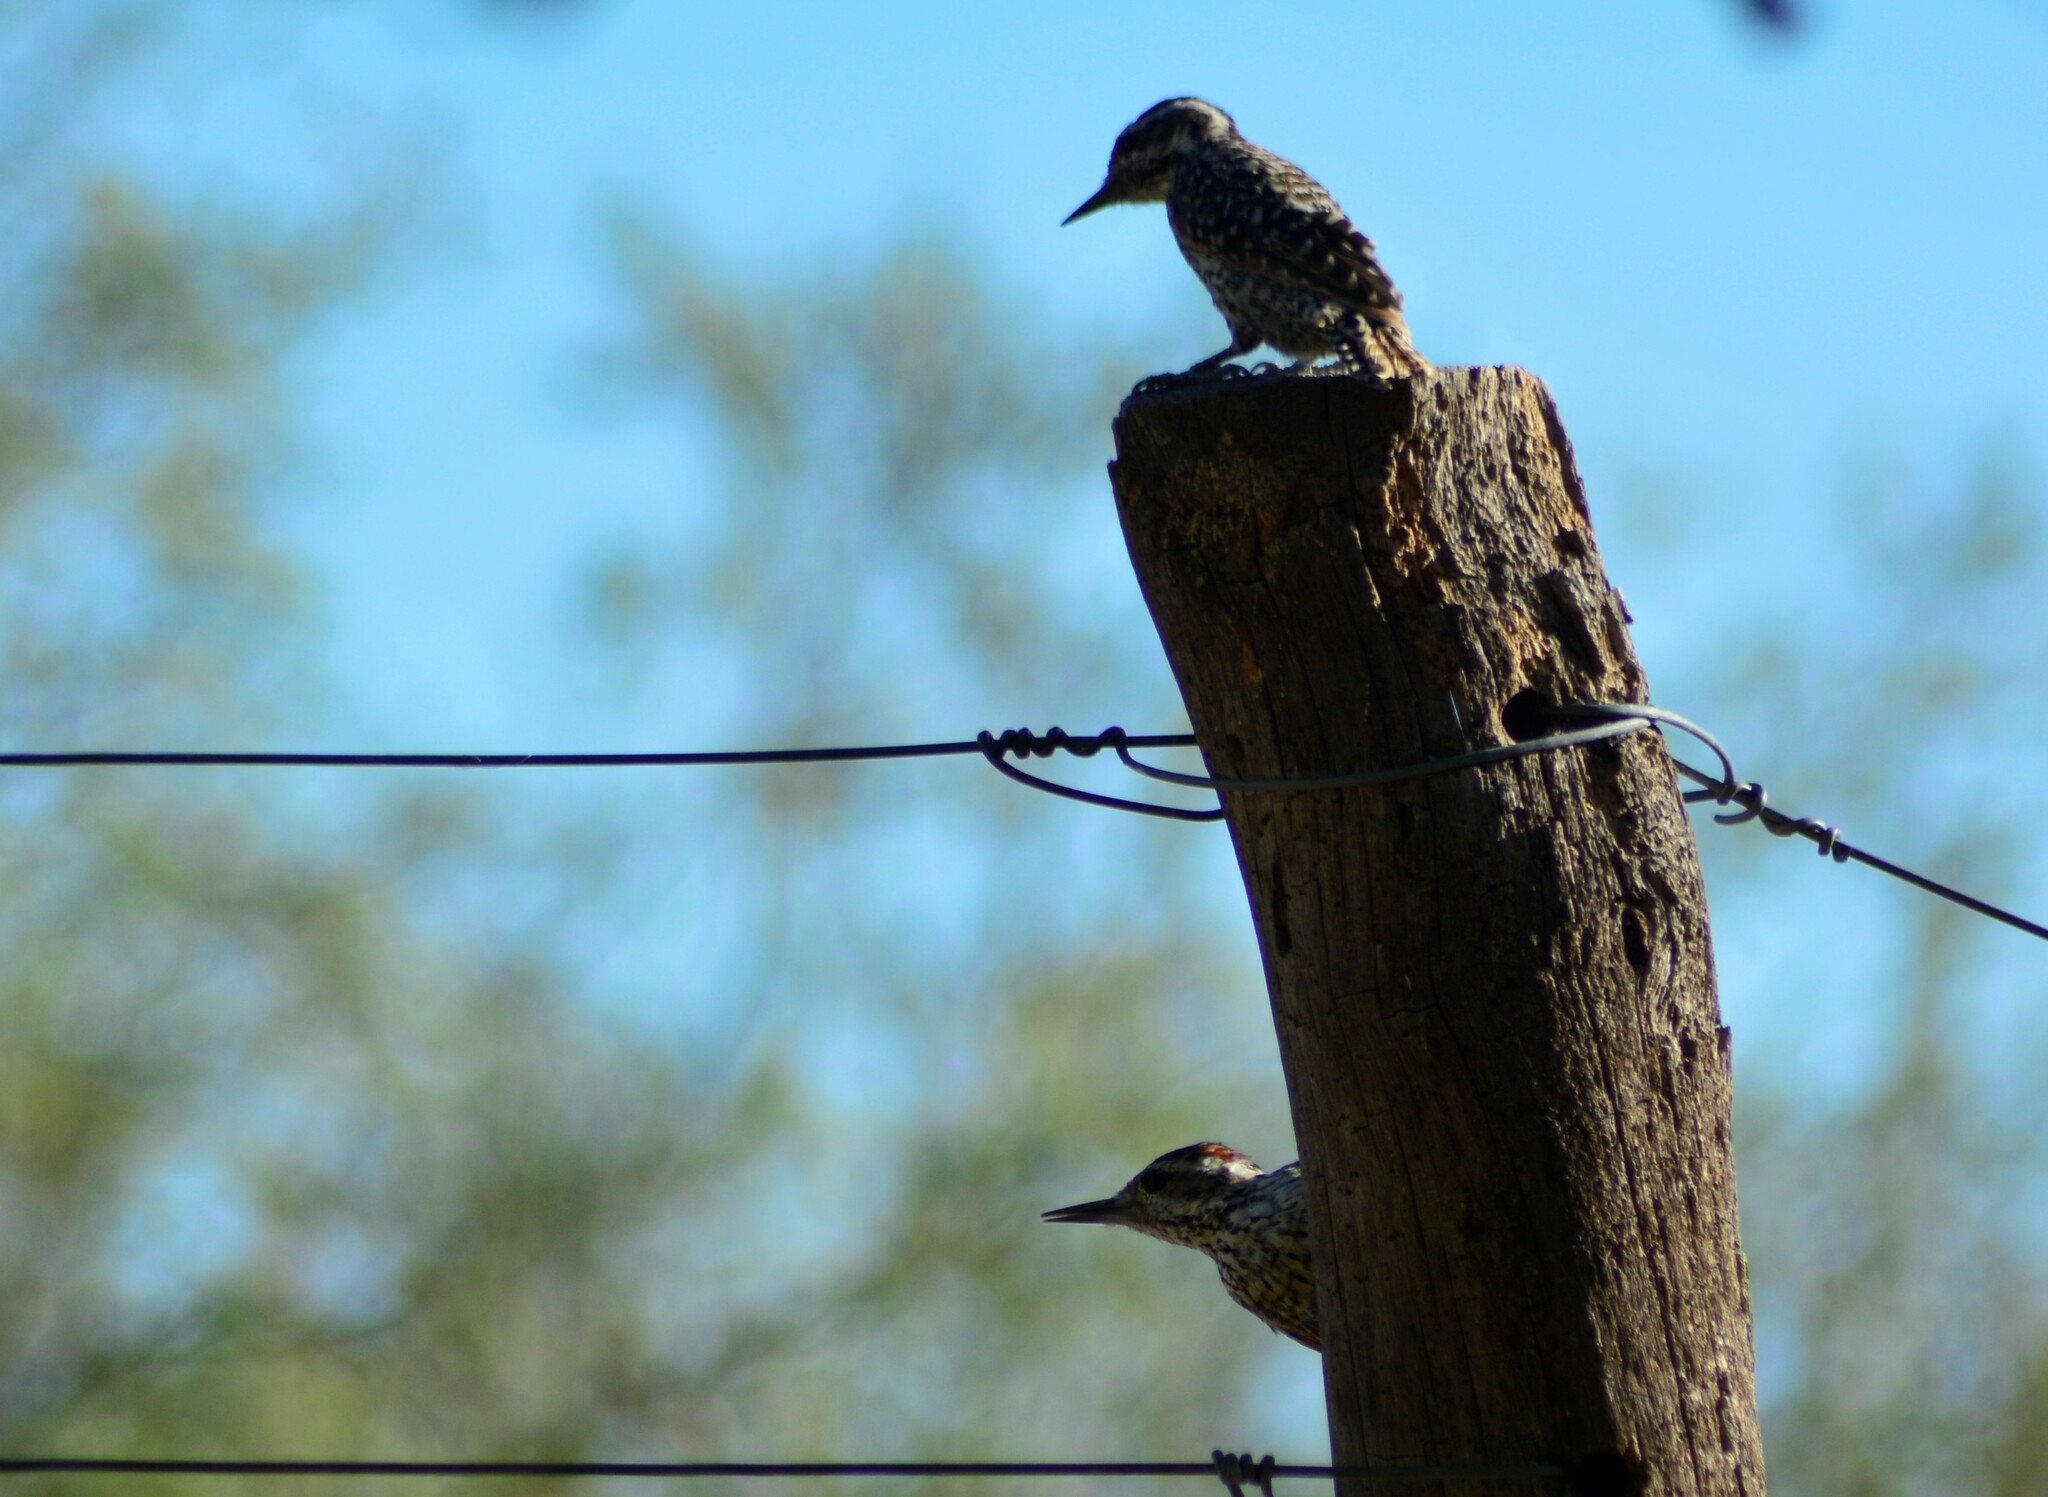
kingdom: Animalia
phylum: Chordata
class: Aves
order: Piciformes
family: Picidae
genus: Veniliornis
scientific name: Veniliornis mixtus
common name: Checkered woodpecker
